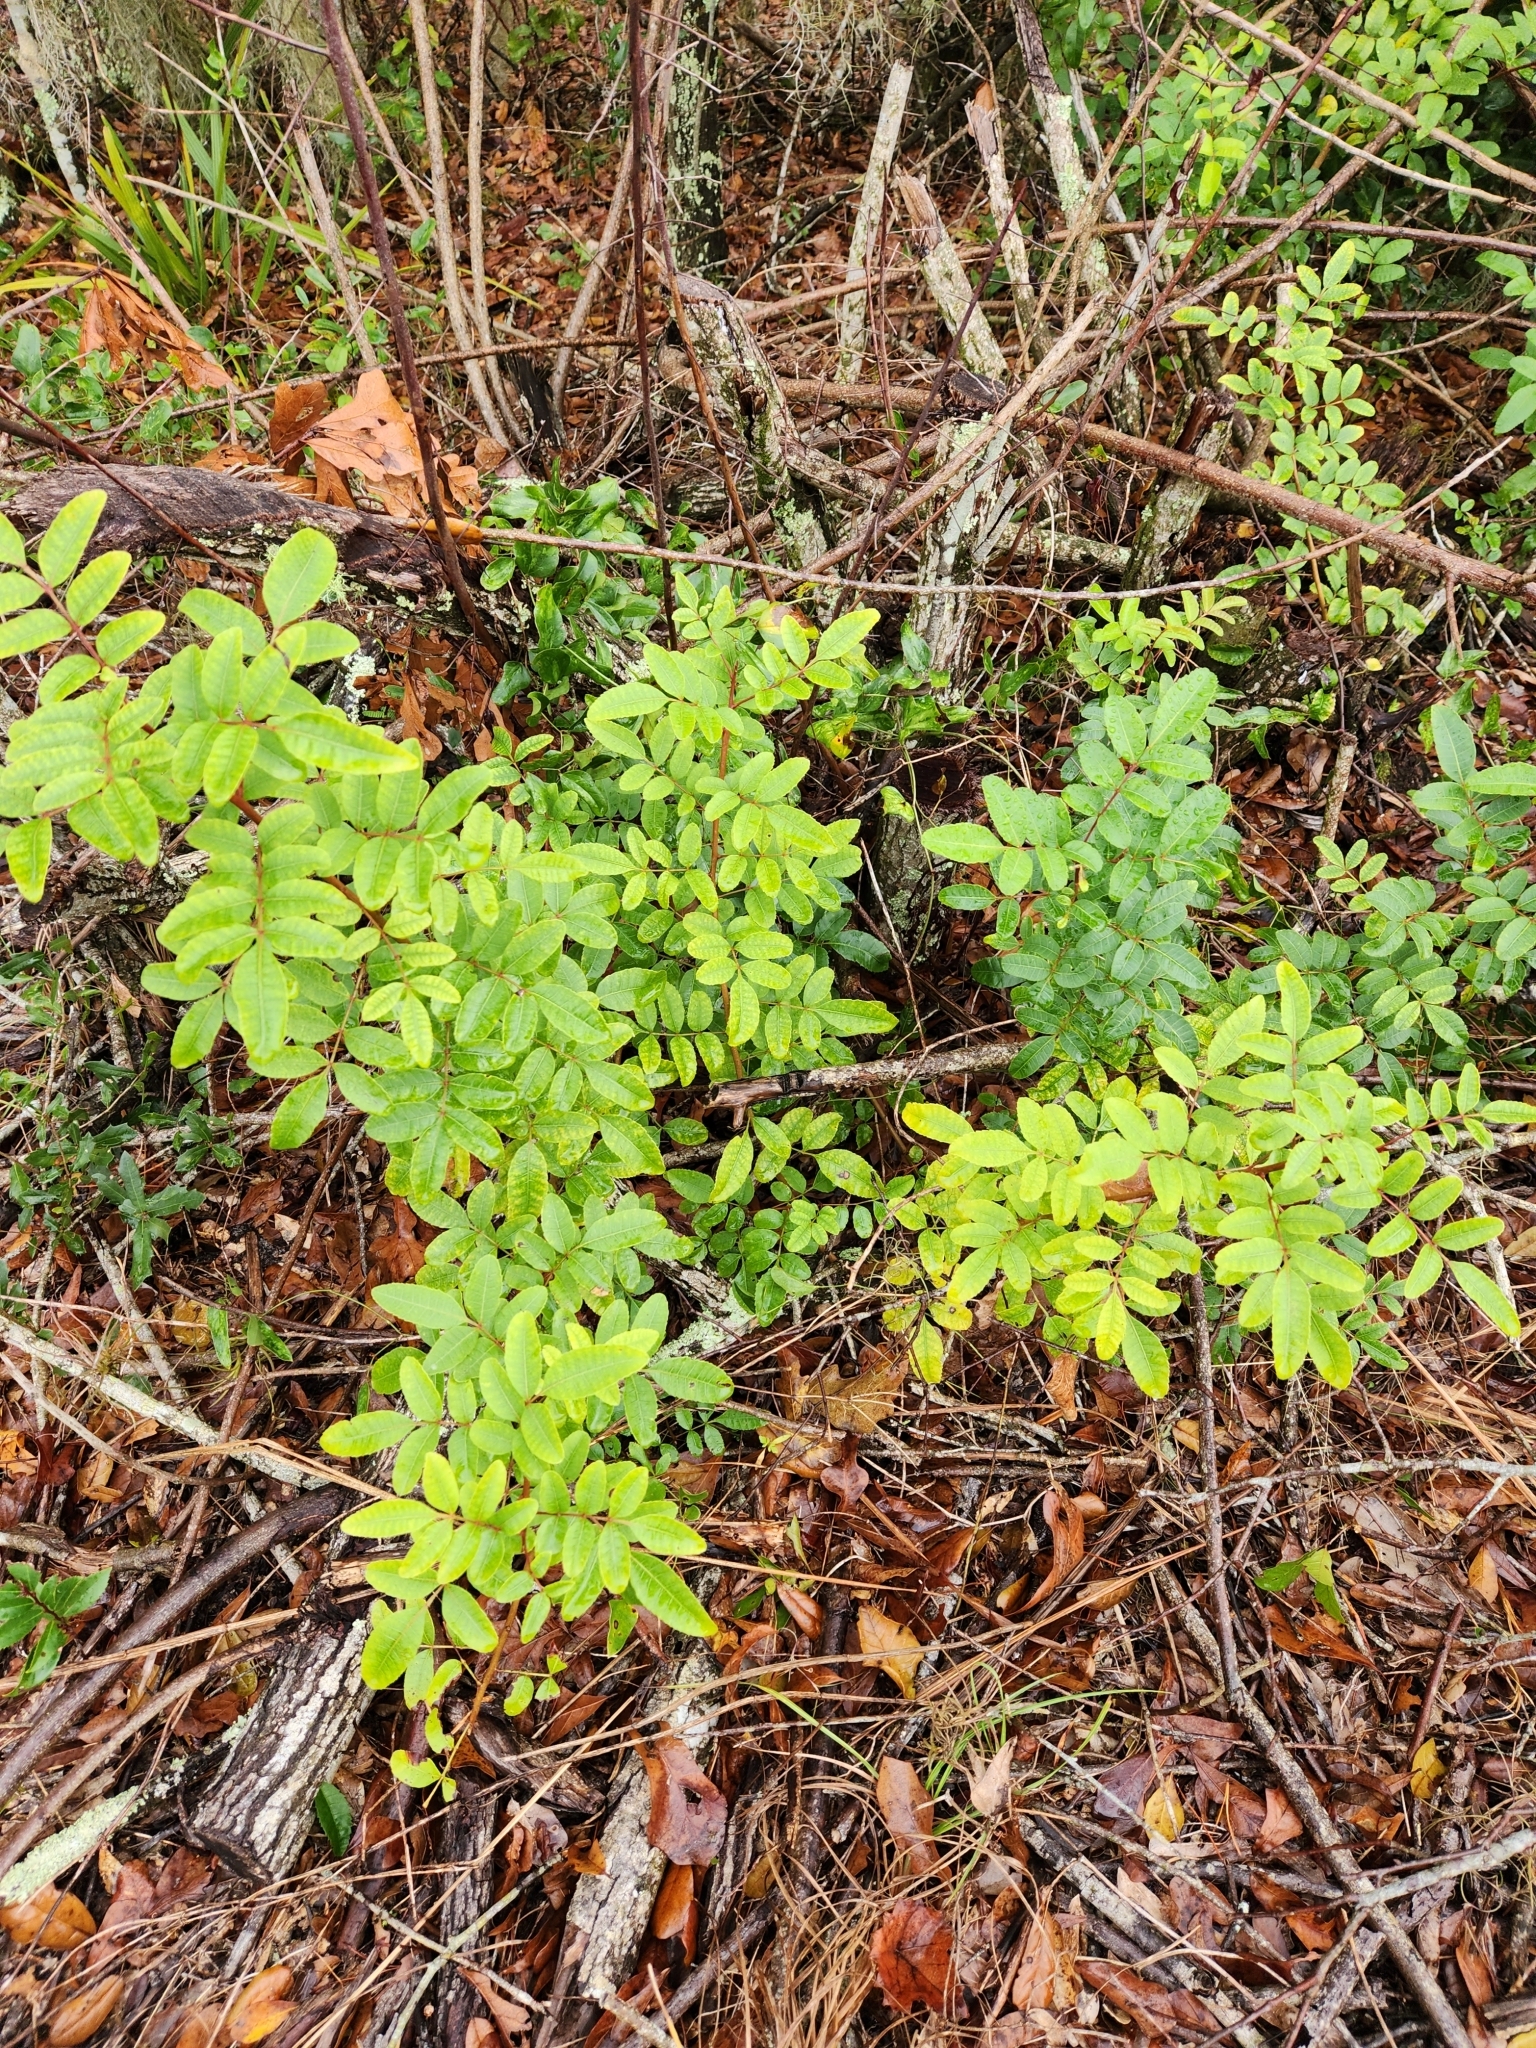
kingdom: Plantae
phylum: Tracheophyta
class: Magnoliopsida
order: Sapindales
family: Anacardiaceae
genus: Schinus
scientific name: Schinus terebinthifolia
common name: Brazilian peppertree
